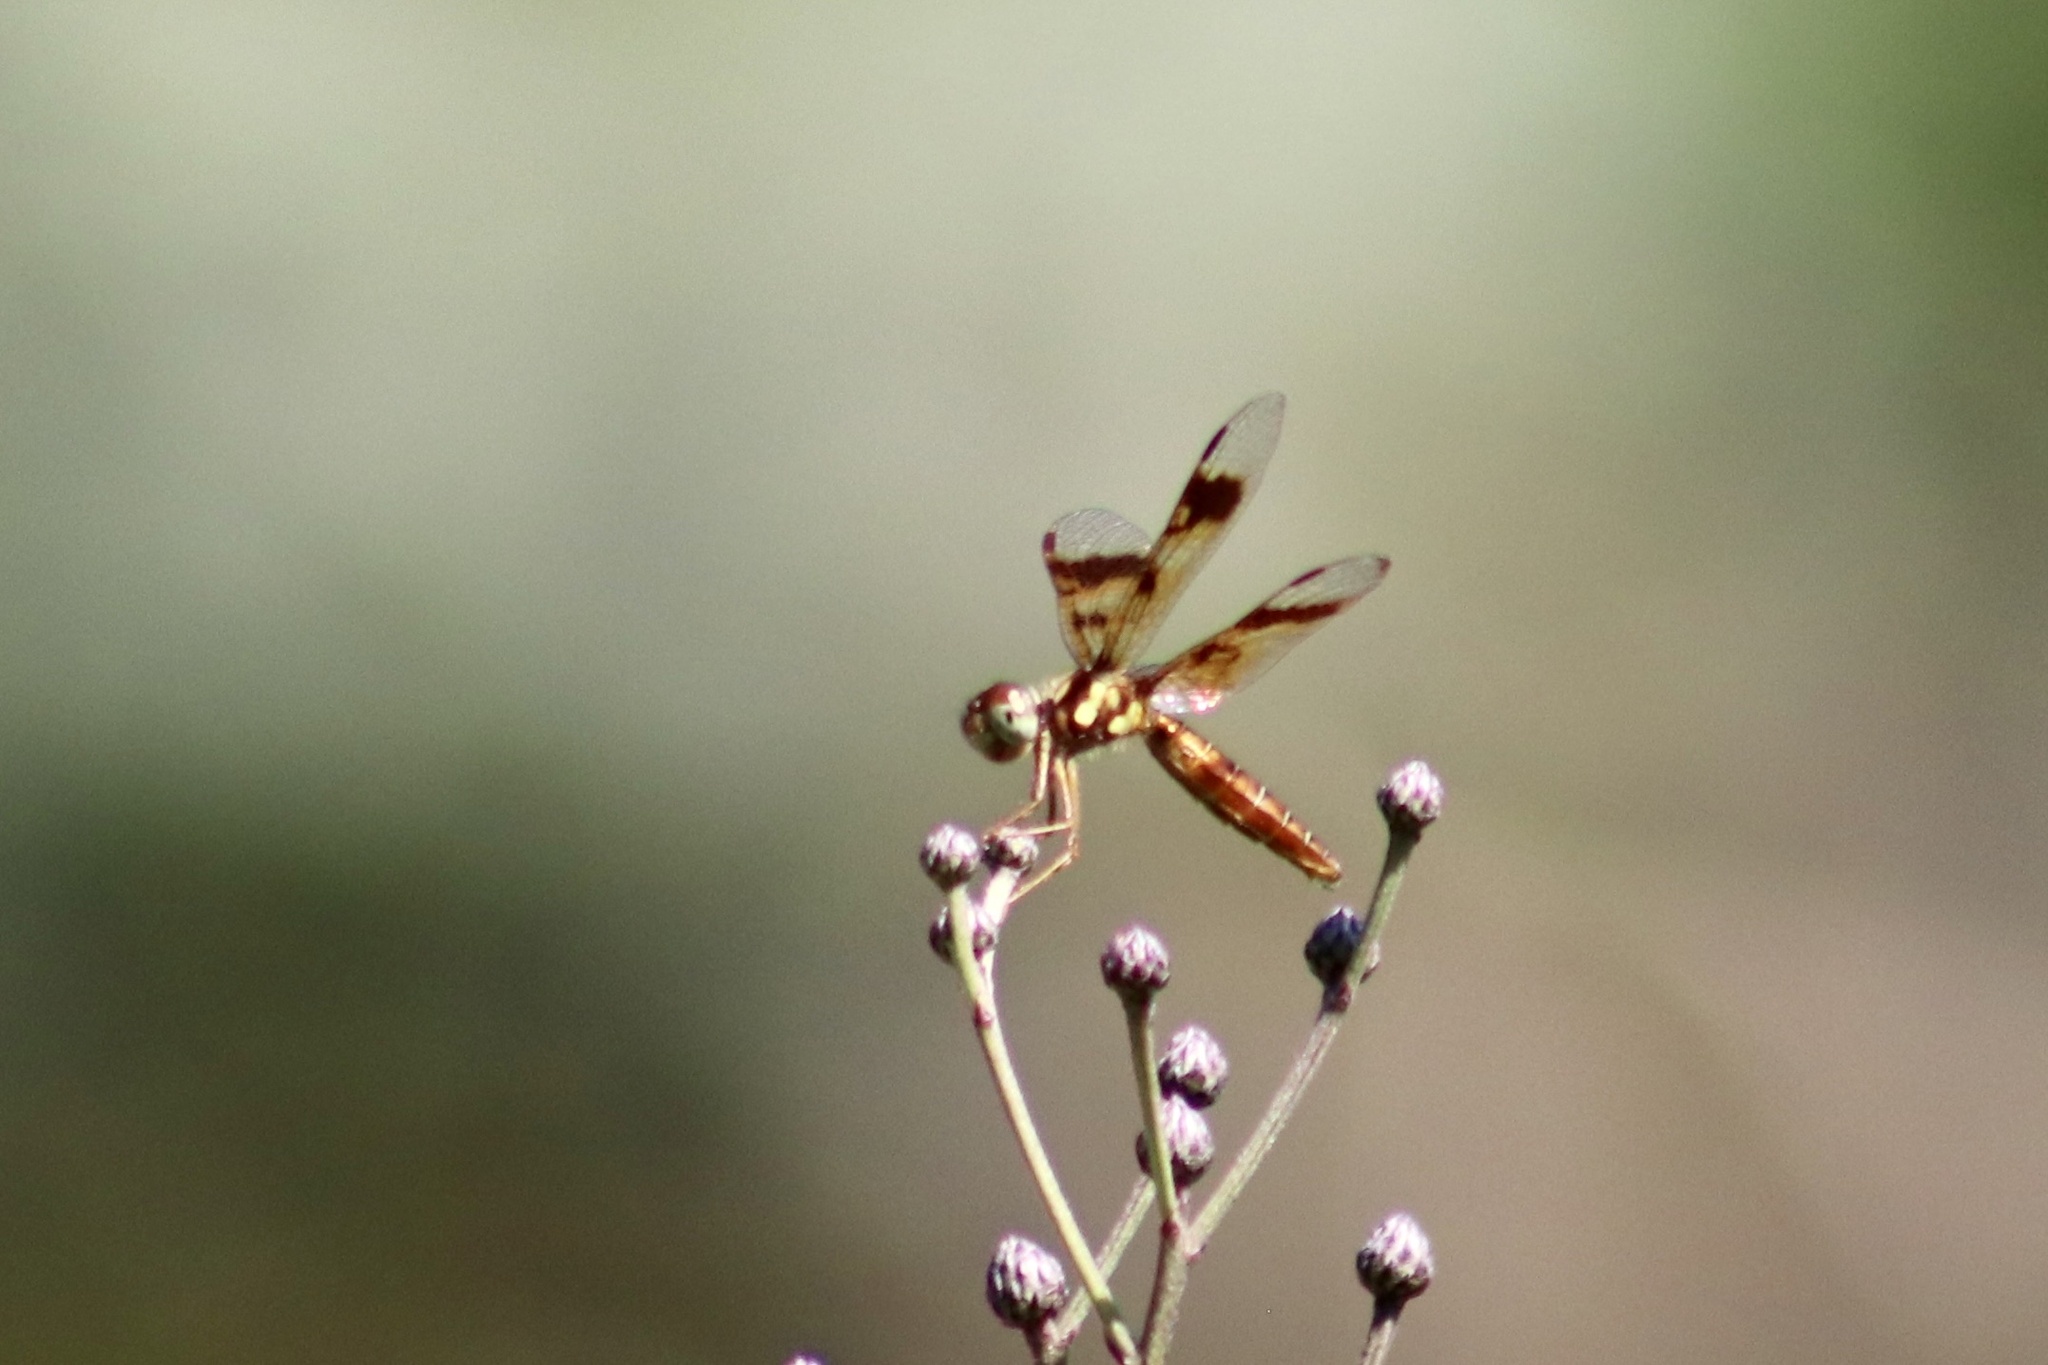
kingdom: Animalia
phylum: Arthropoda
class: Insecta
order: Odonata
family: Libellulidae
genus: Perithemis
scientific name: Perithemis tenera
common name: Eastern amberwing
